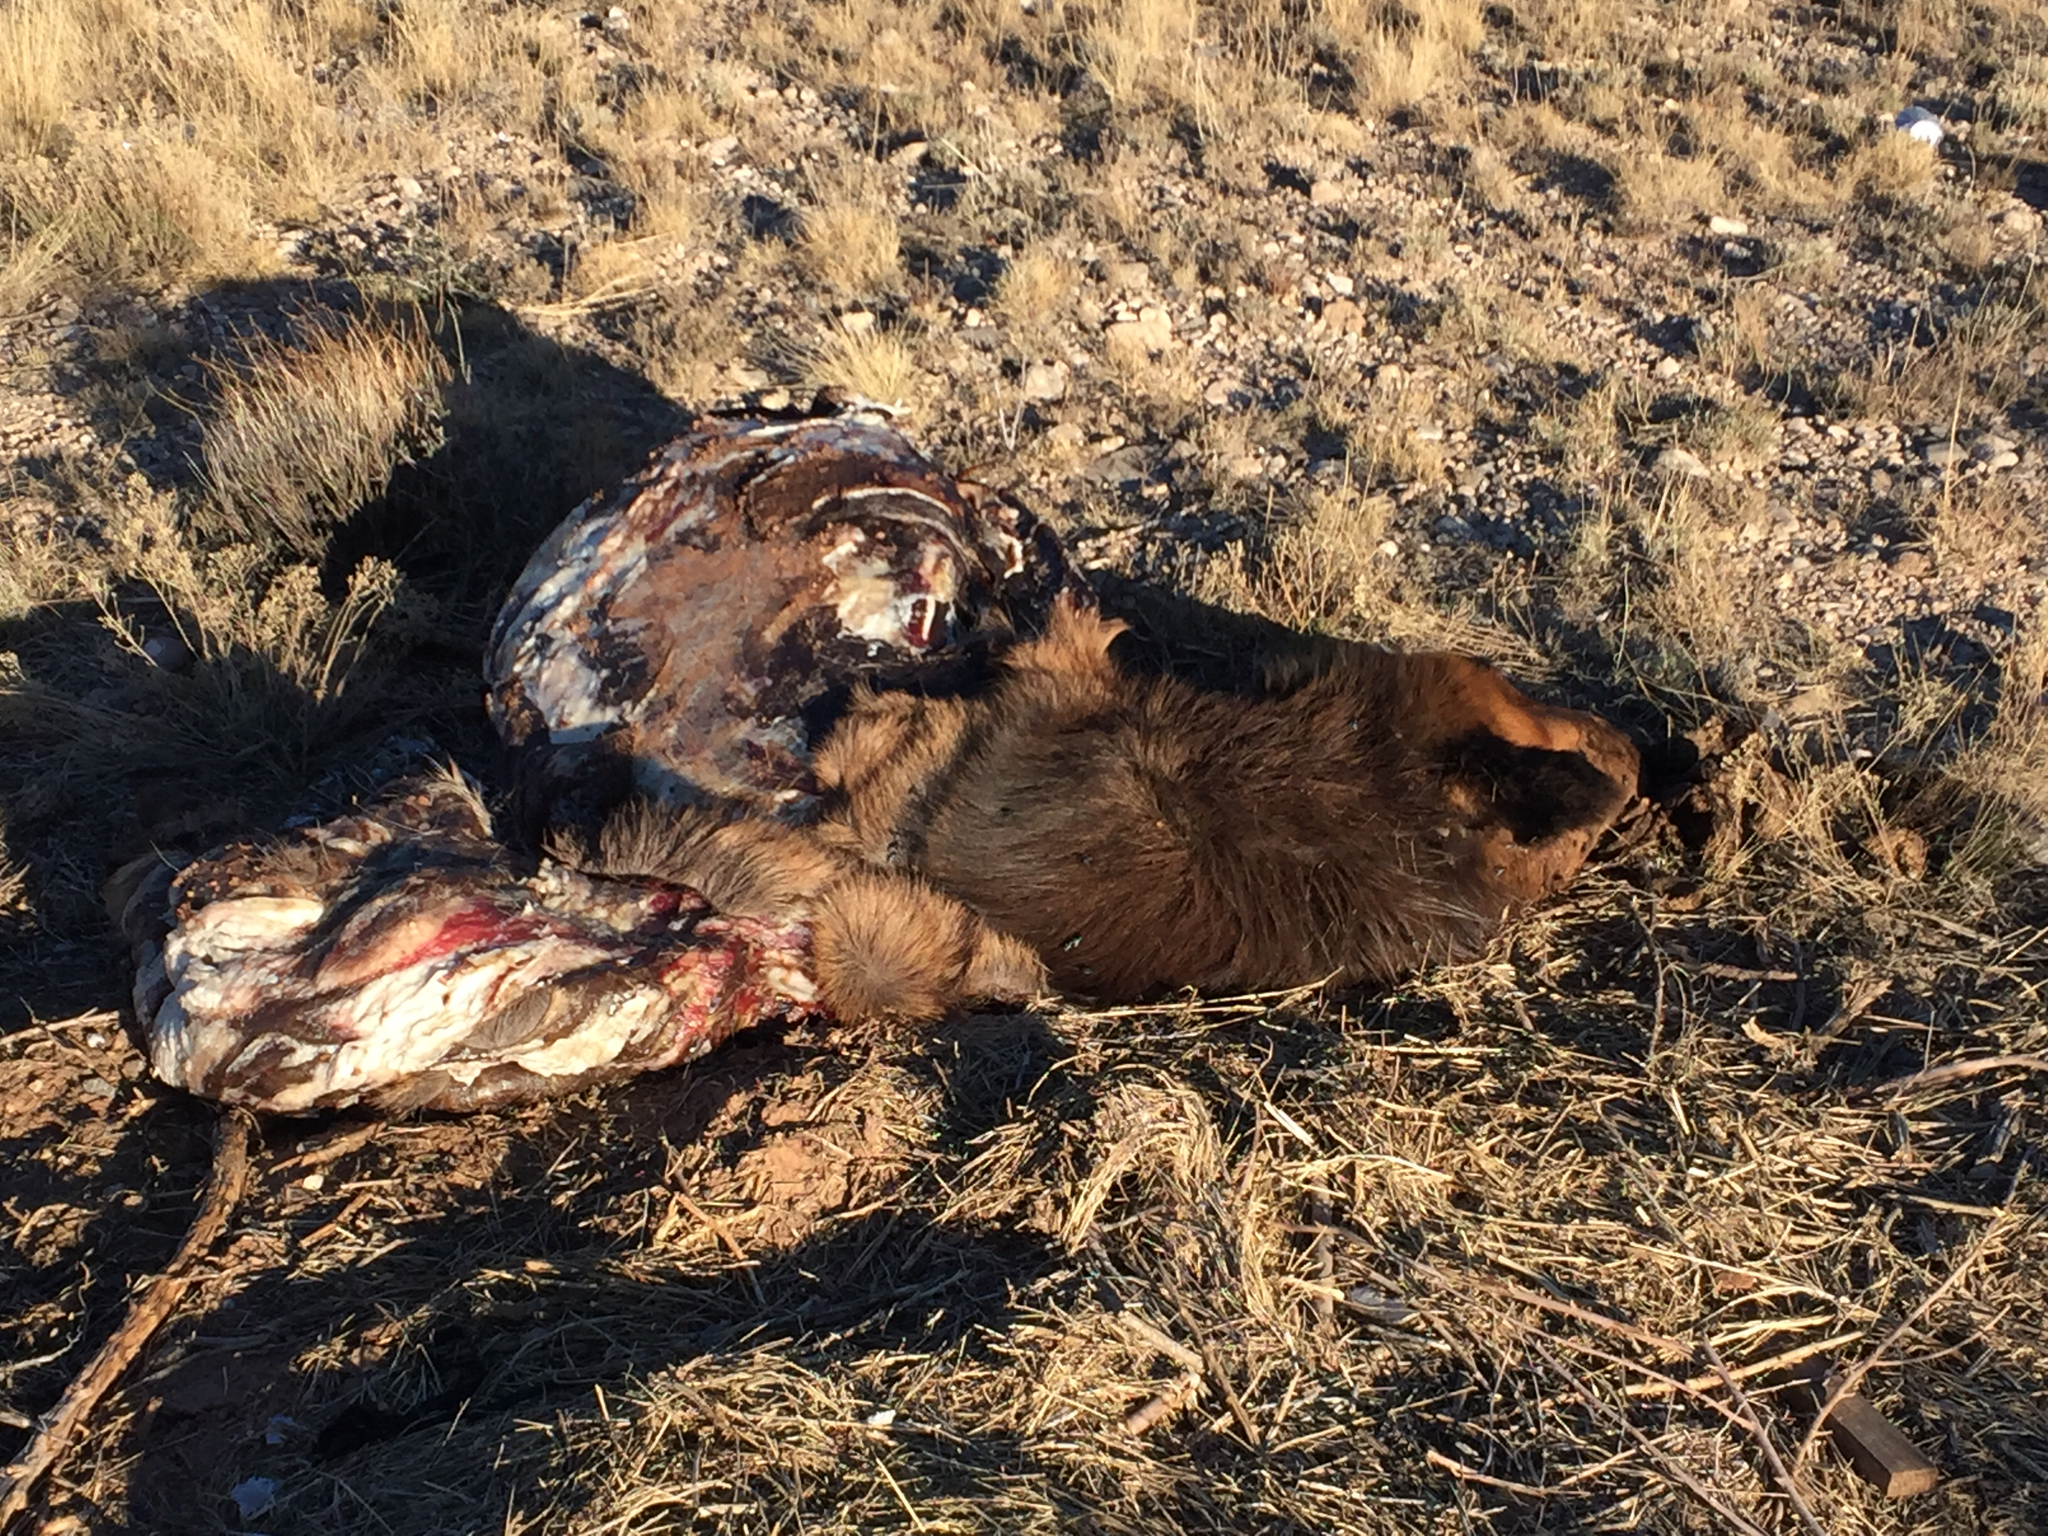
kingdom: Animalia
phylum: Chordata
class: Mammalia
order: Artiodactyla
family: Cervidae
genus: Cervus
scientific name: Cervus elaphus
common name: Red deer
